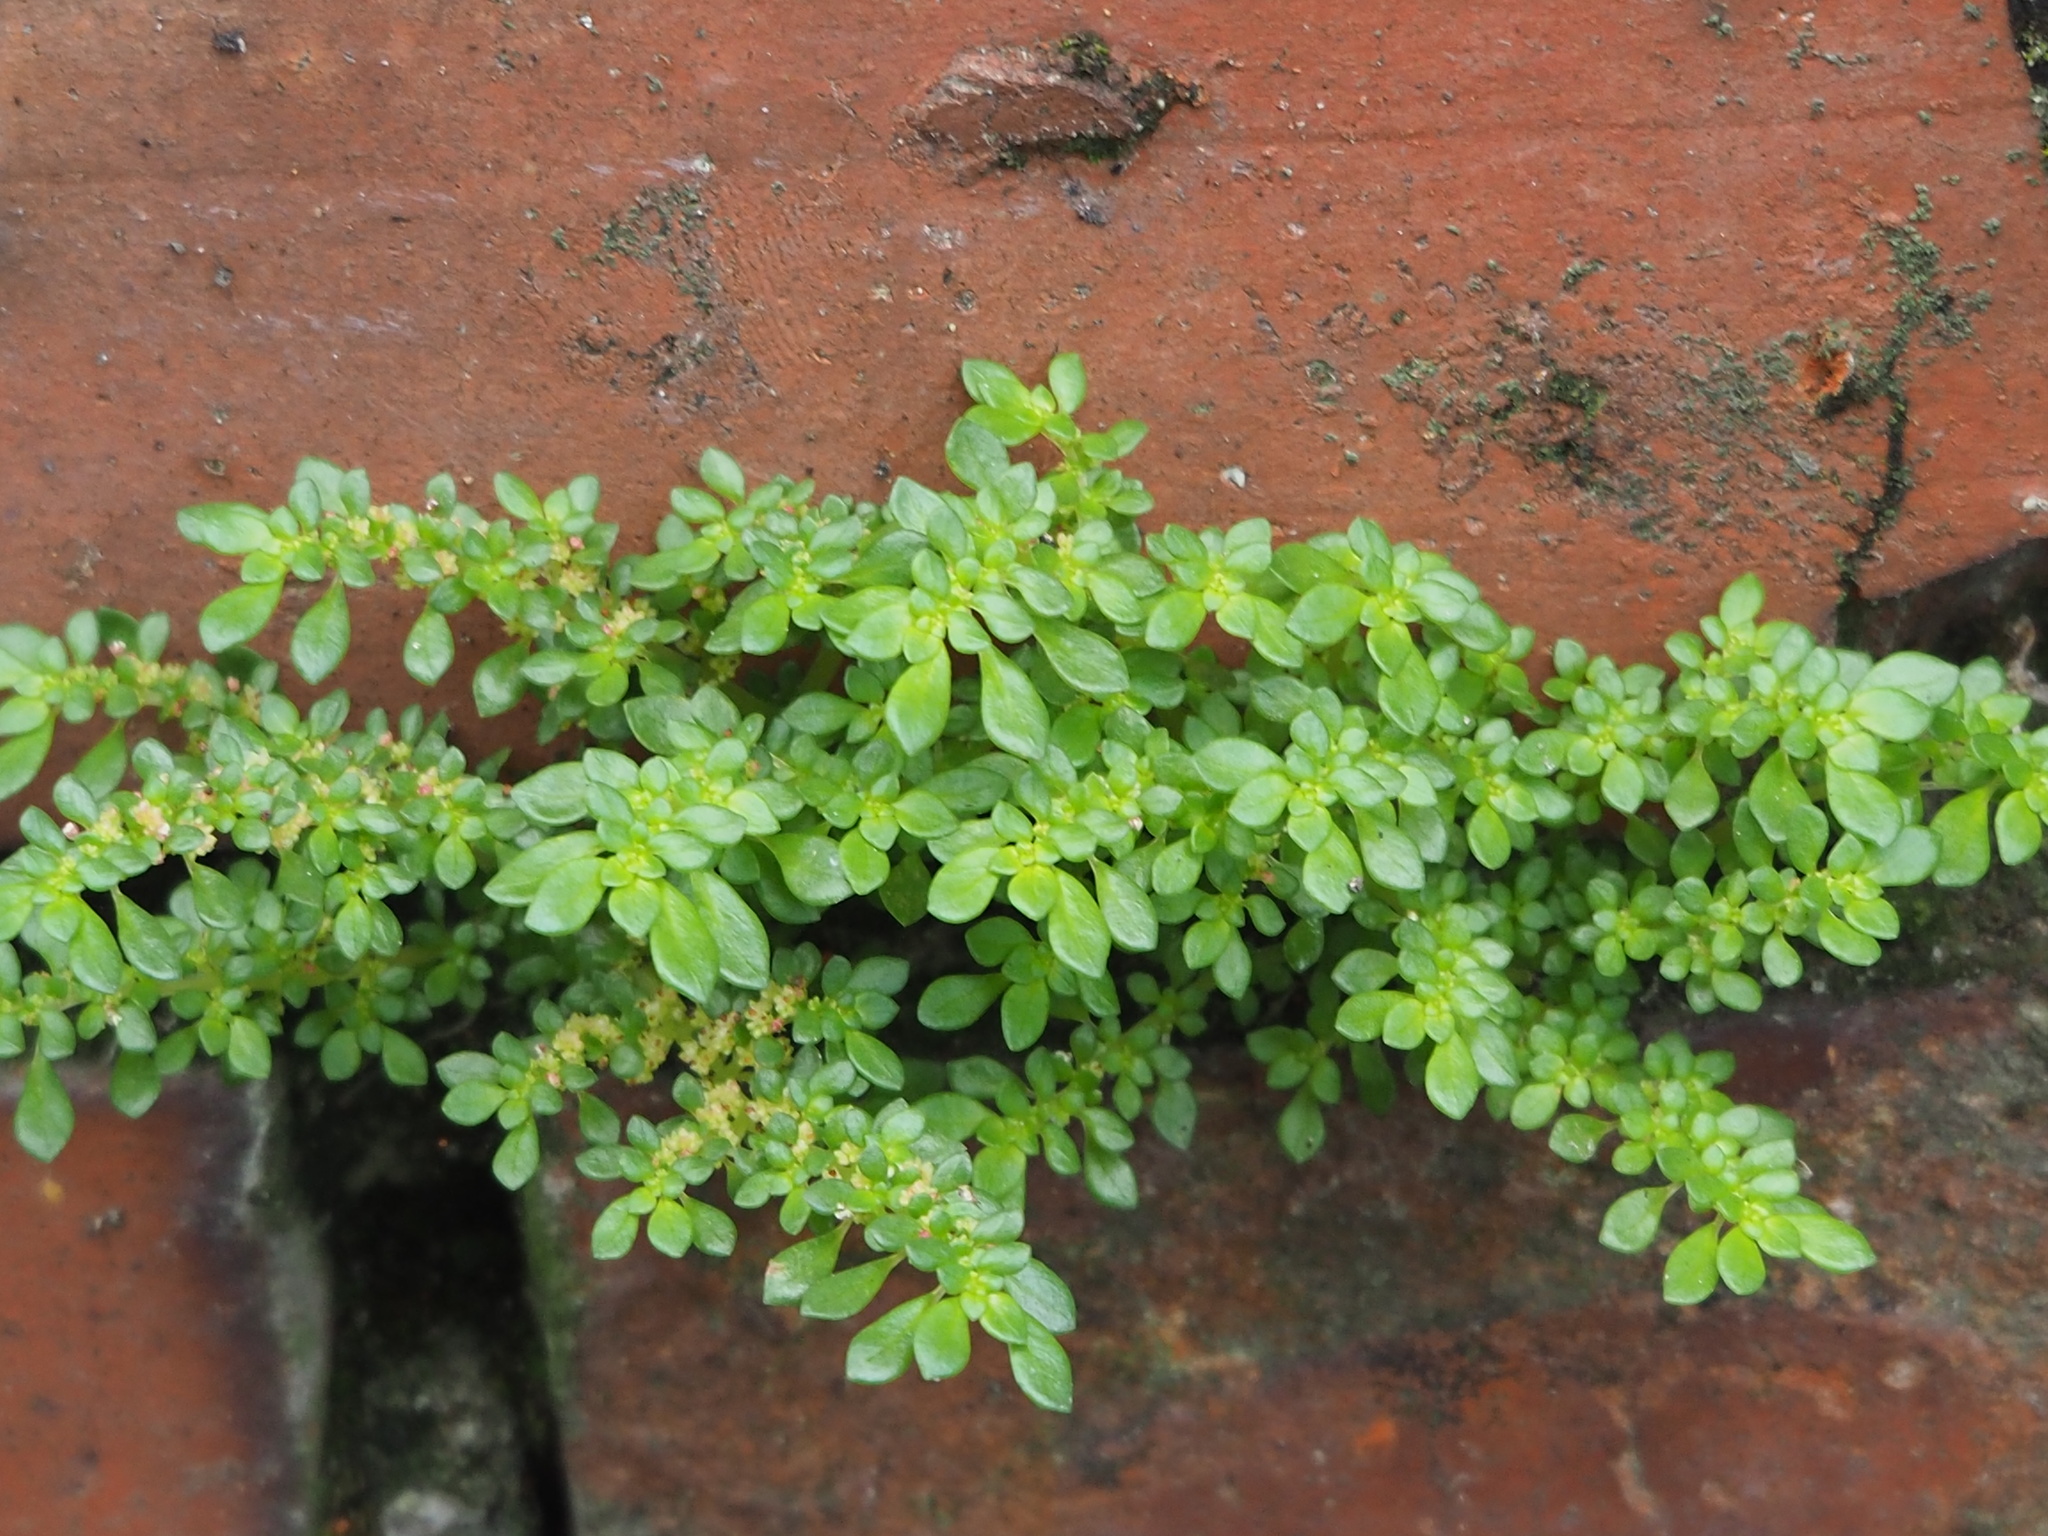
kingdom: Plantae
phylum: Tracheophyta
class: Magnoliopsida
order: Rosales
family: Urticaceae
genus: Pilea
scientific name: Pilea microphylla
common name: Artillery-plant
